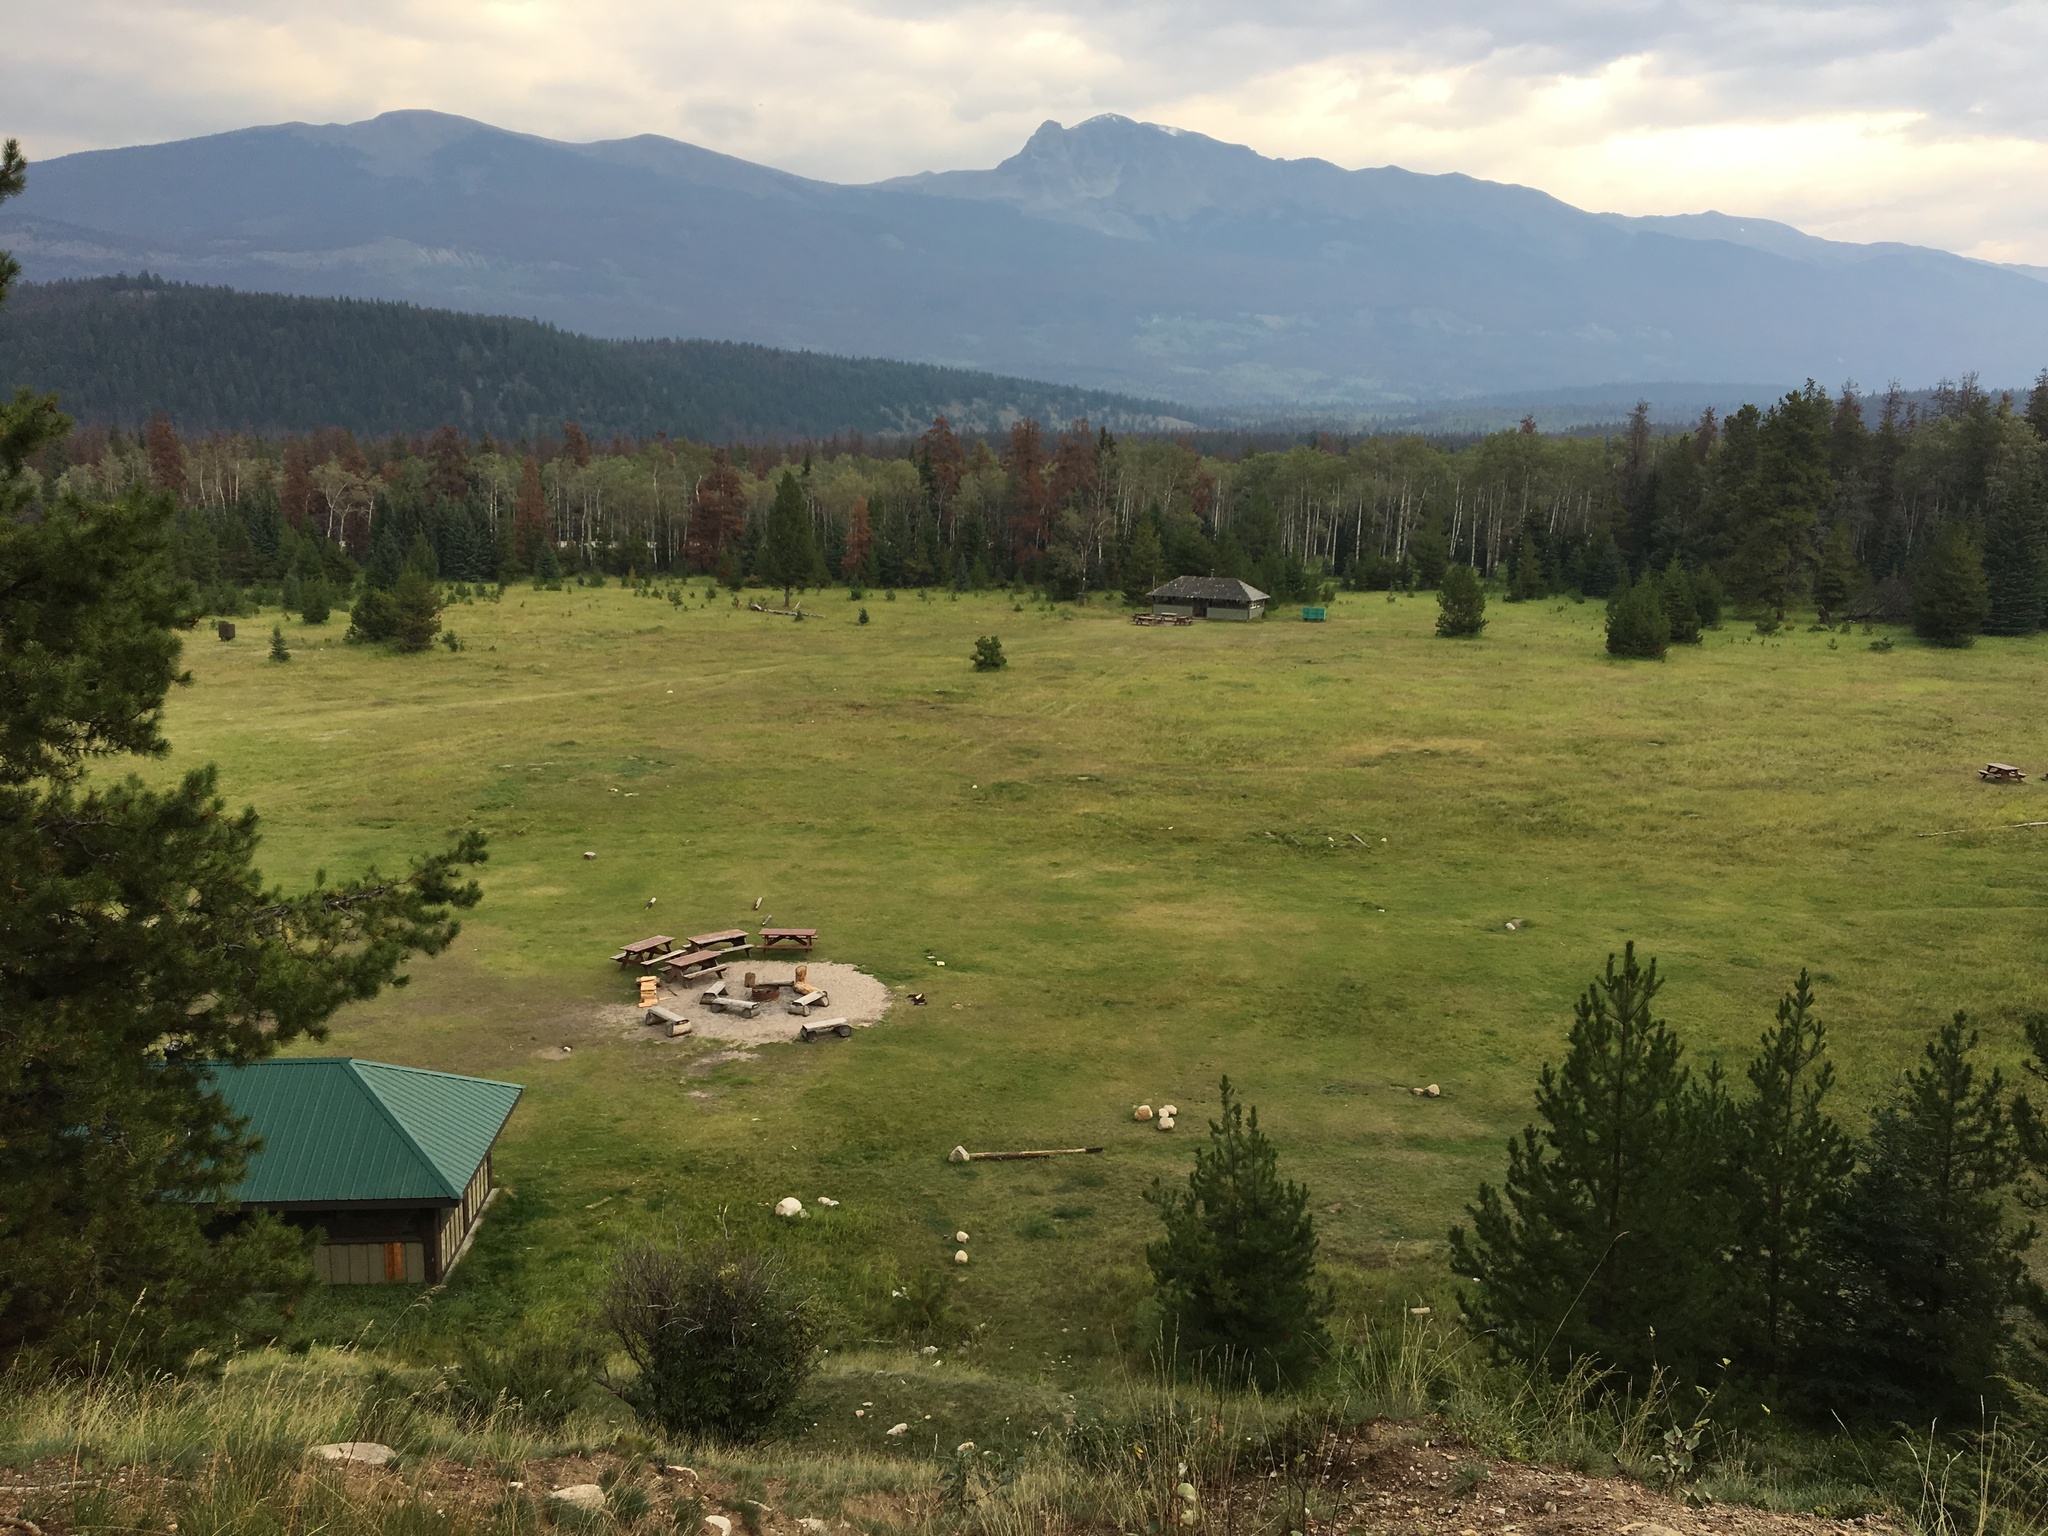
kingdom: Plantae
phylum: Tracheophyta
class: Pinopsida
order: Pinales
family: Pinaceae
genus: Pinus
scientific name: Pinus contorta
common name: Lodgepole pine
